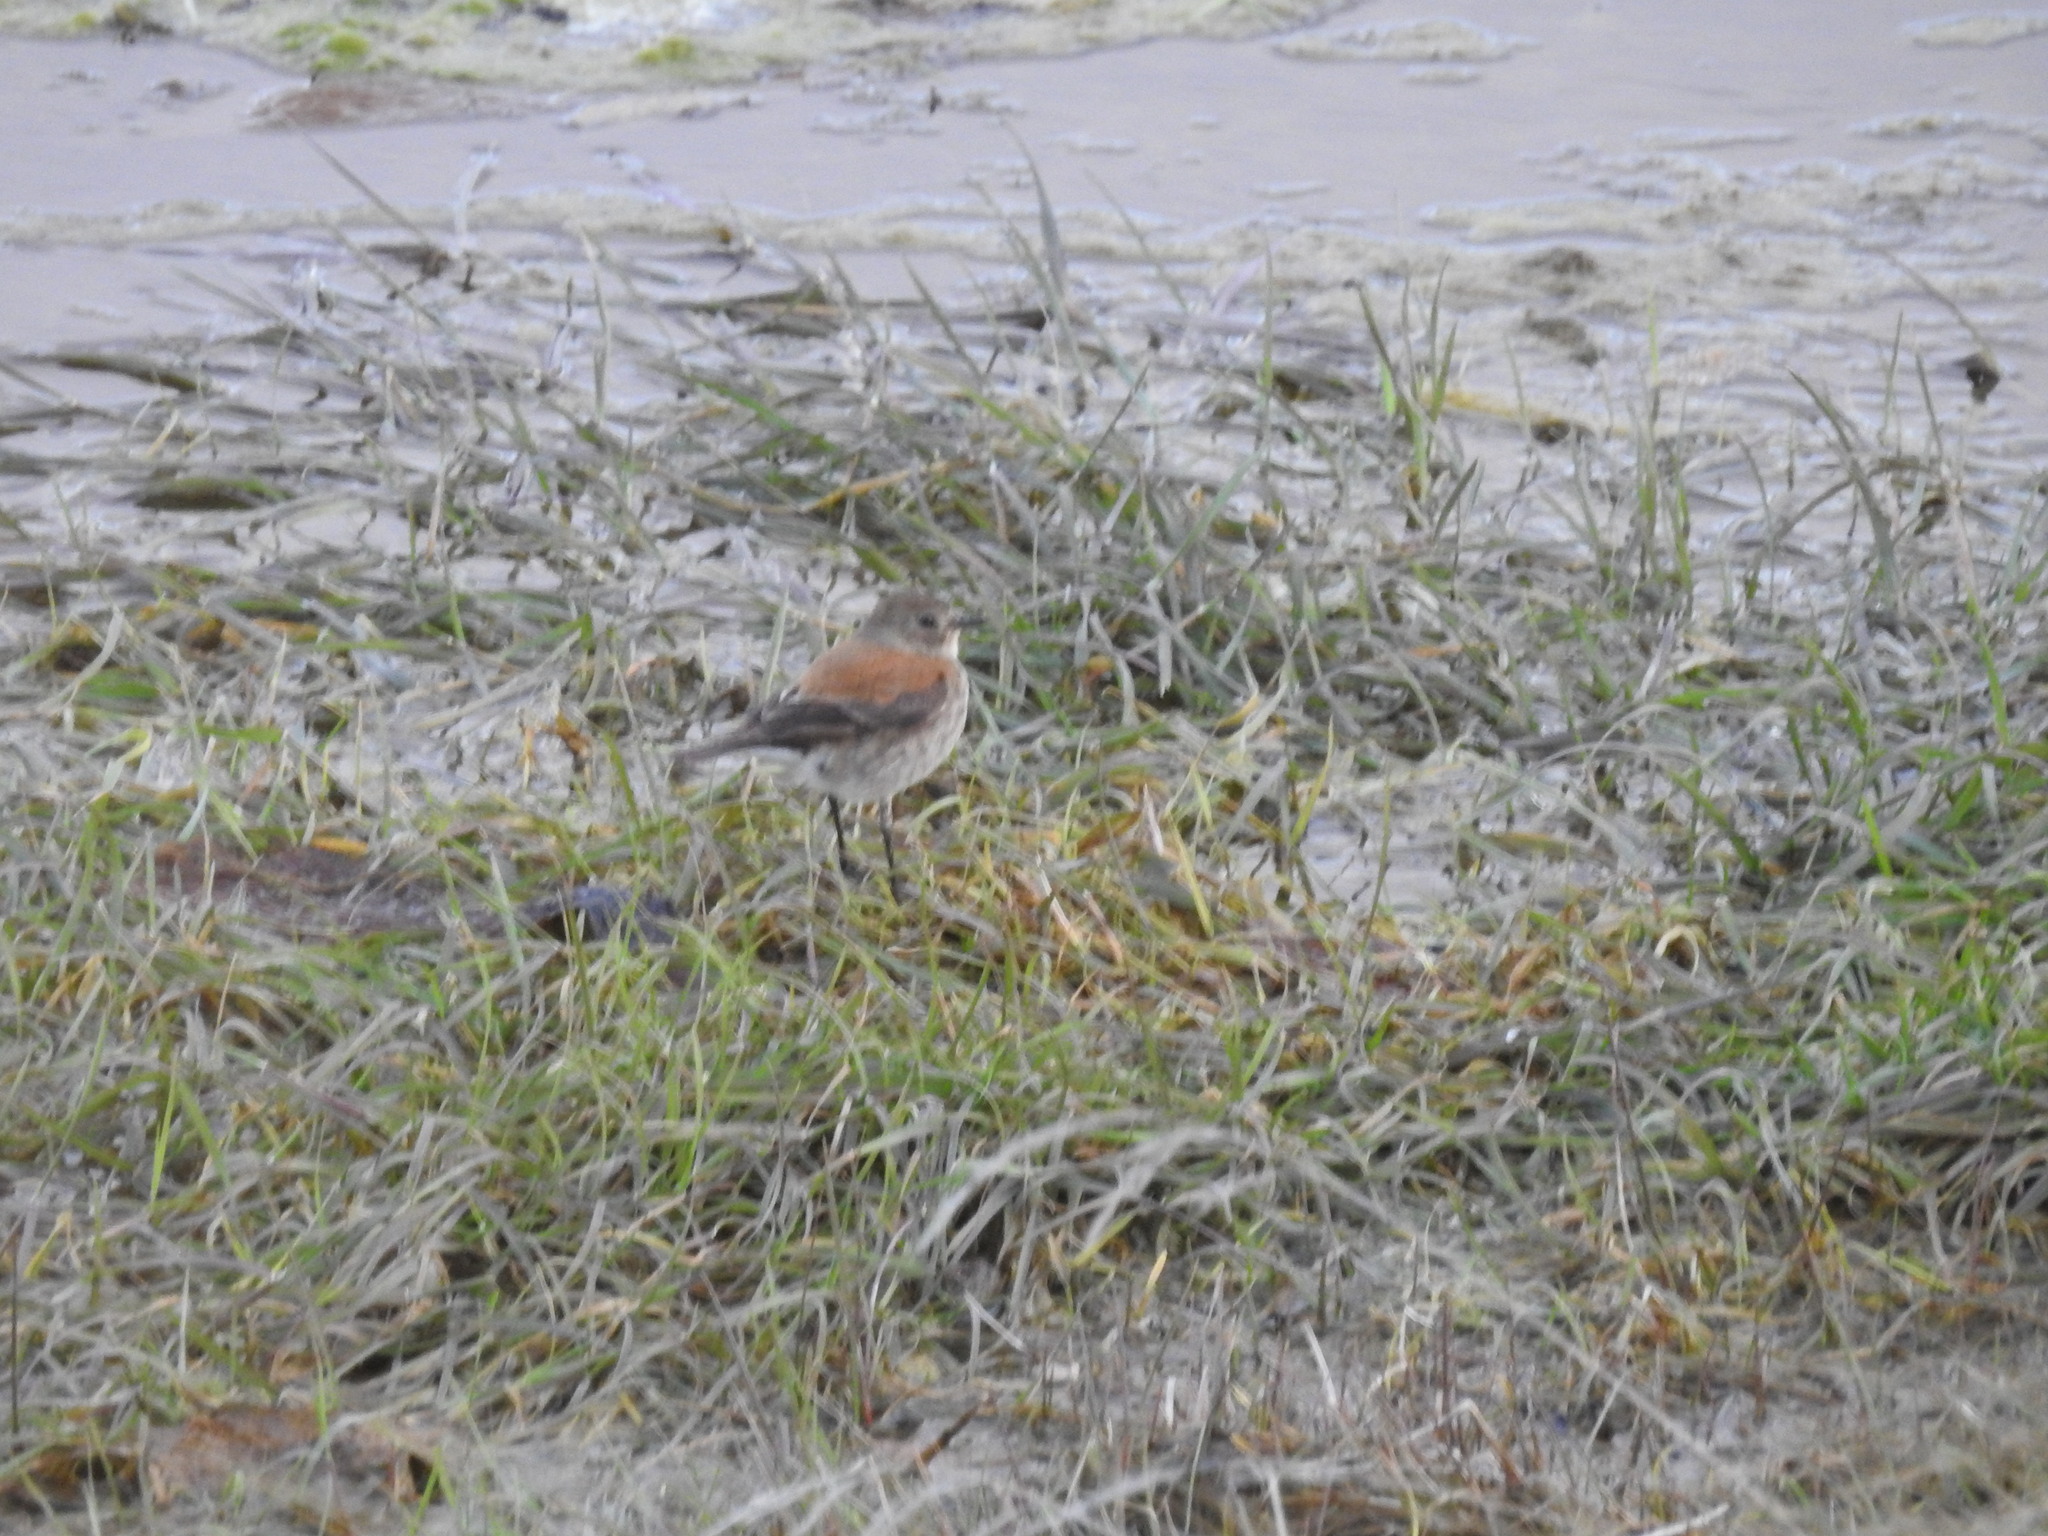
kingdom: Animalia
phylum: Chordata
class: Aves
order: Passeriformes
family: Tyrannidae
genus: Lessonia
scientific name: Lessonia rufa
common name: Austral negrito
